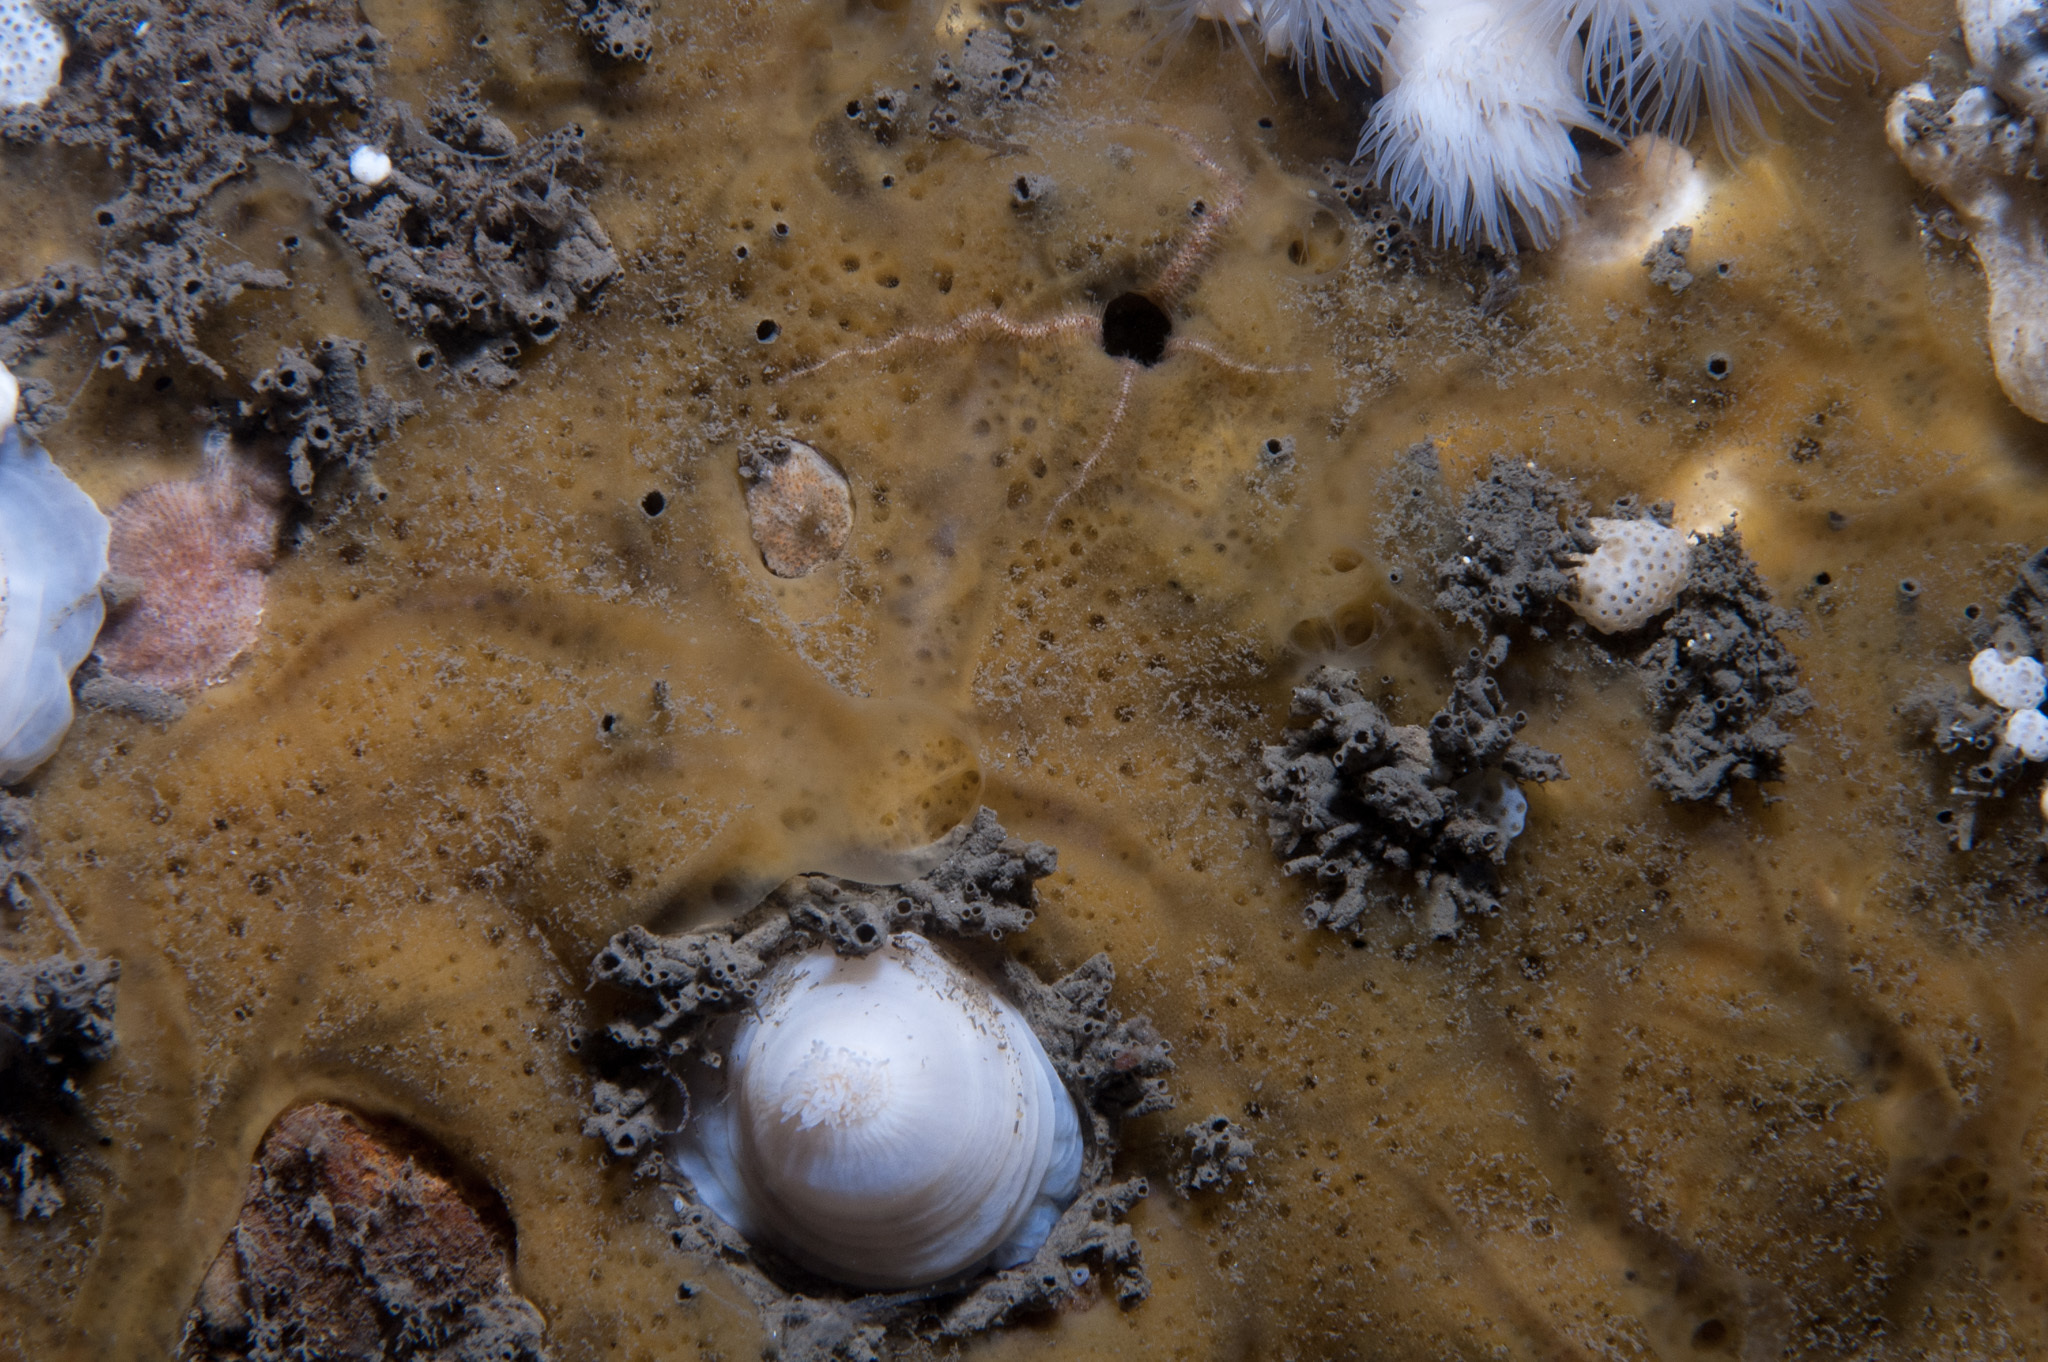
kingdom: Animalia
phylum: Porifera
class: Demospongiae
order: Poecilosclerida
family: Mycalidae
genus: Mycale
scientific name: Mycale macilenta
